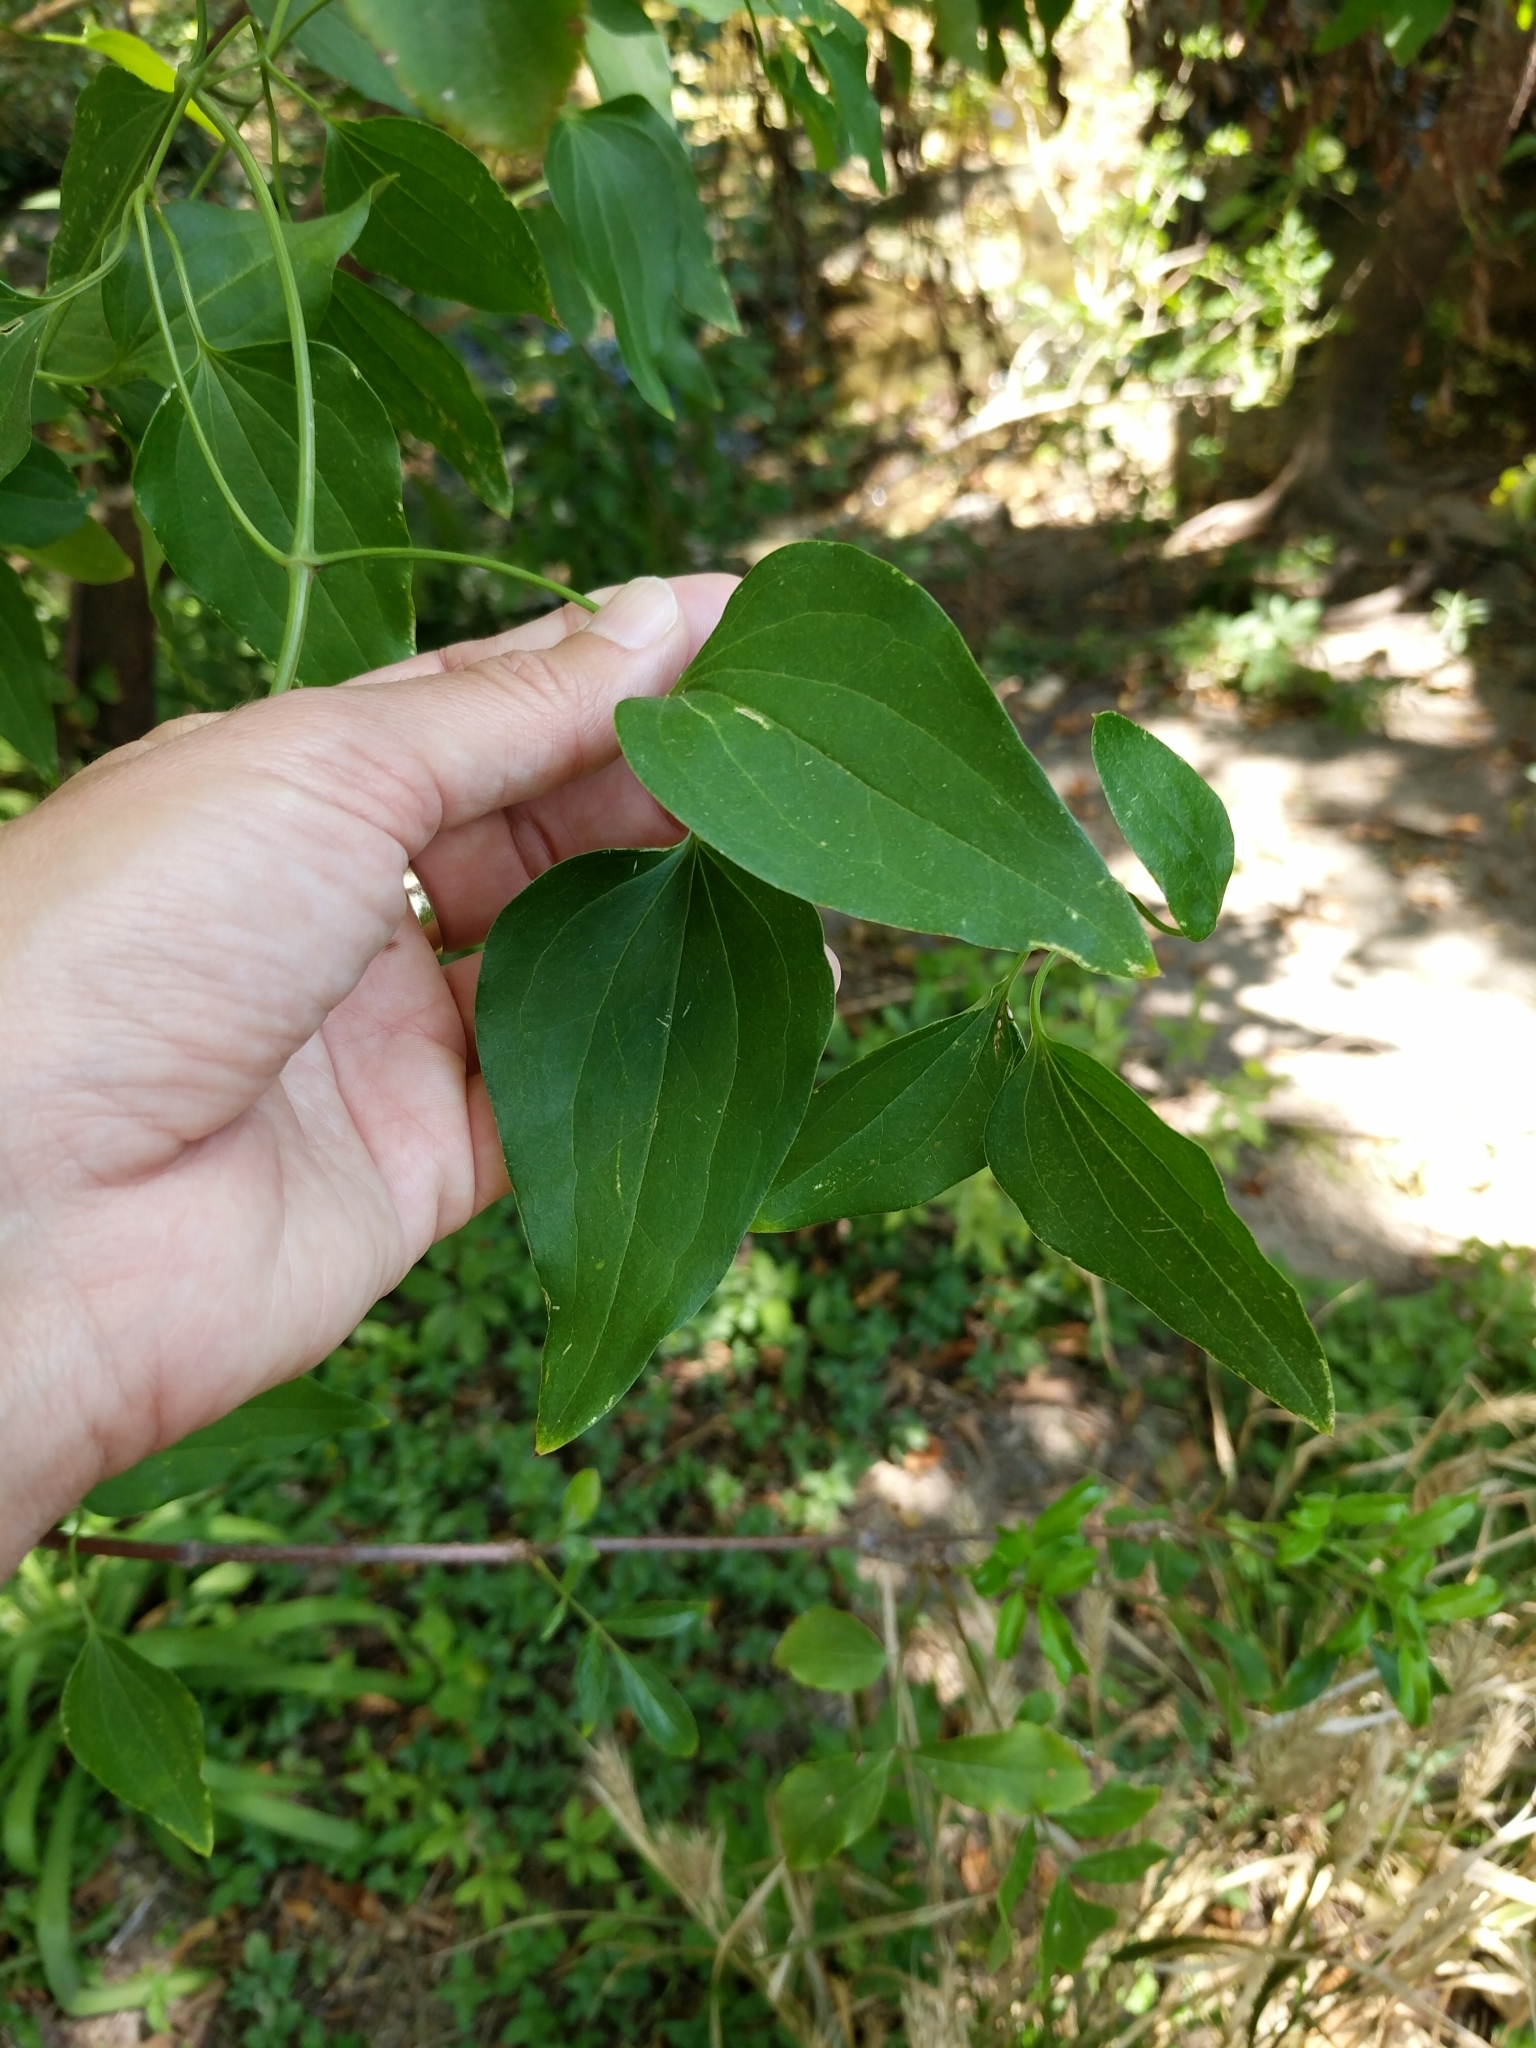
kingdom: Plantae
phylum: Tracheophyta
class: Magnoliopsida
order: Ranunculales
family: Ranunculaceae
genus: Clematis
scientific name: Clematis terniflora
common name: Sweet autumn clematis
